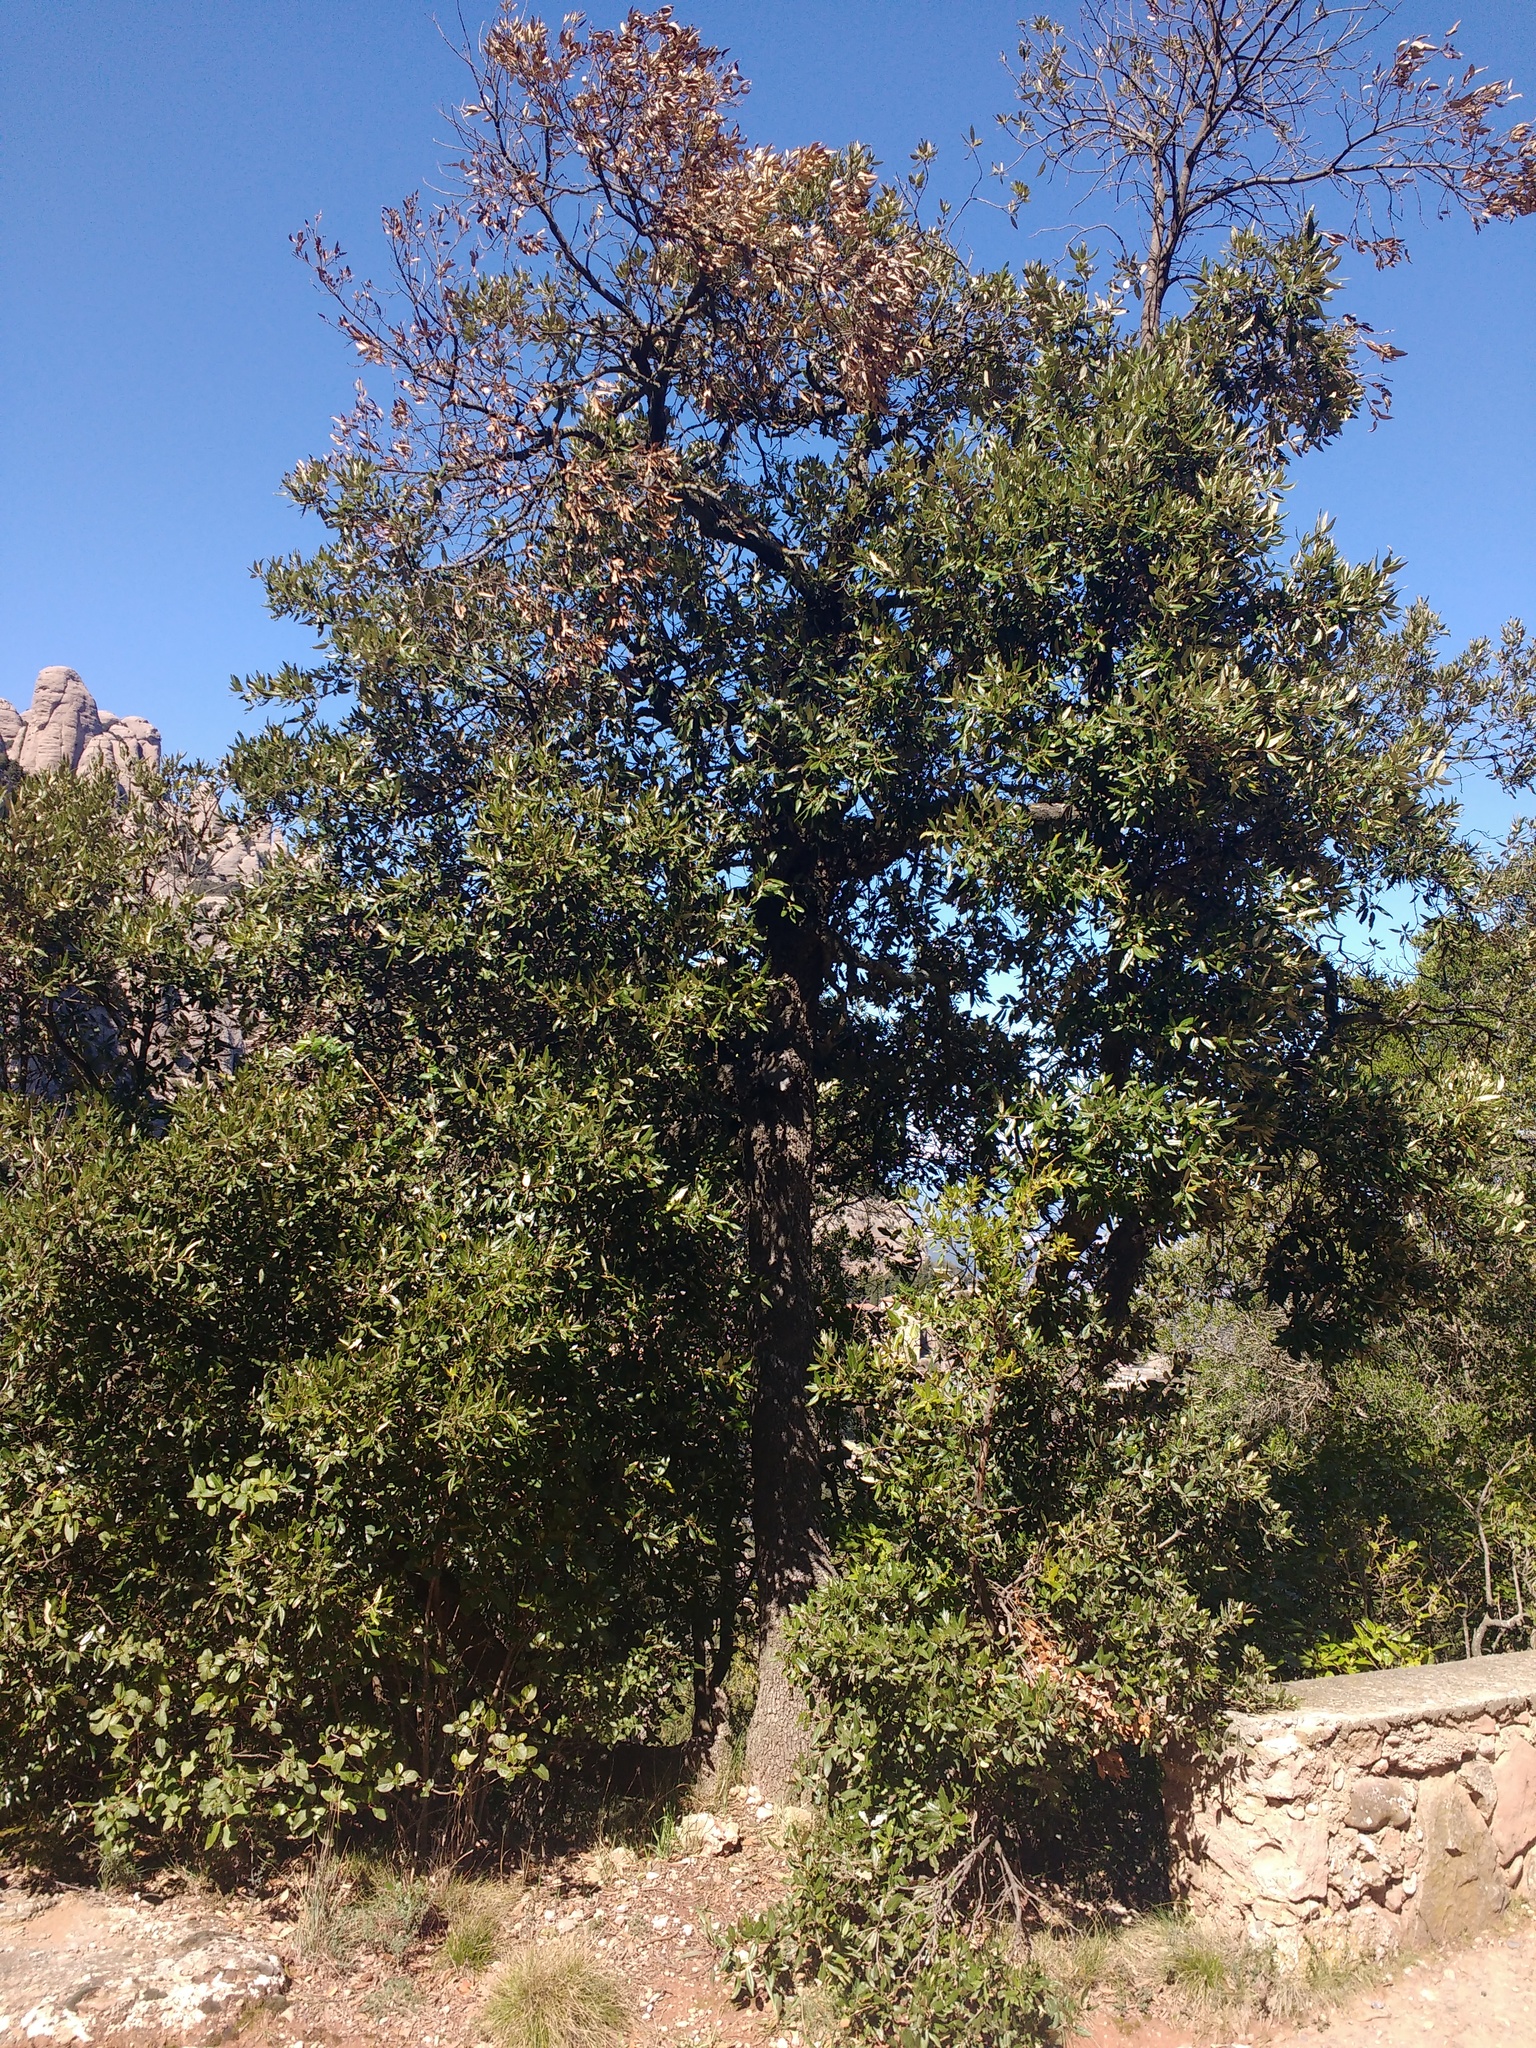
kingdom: Plantae
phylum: Tracheophyta
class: Magnoliopsida
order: Fagales
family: Fagaceae
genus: Quercus
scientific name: Quercus ilex
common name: Evergreen oak
